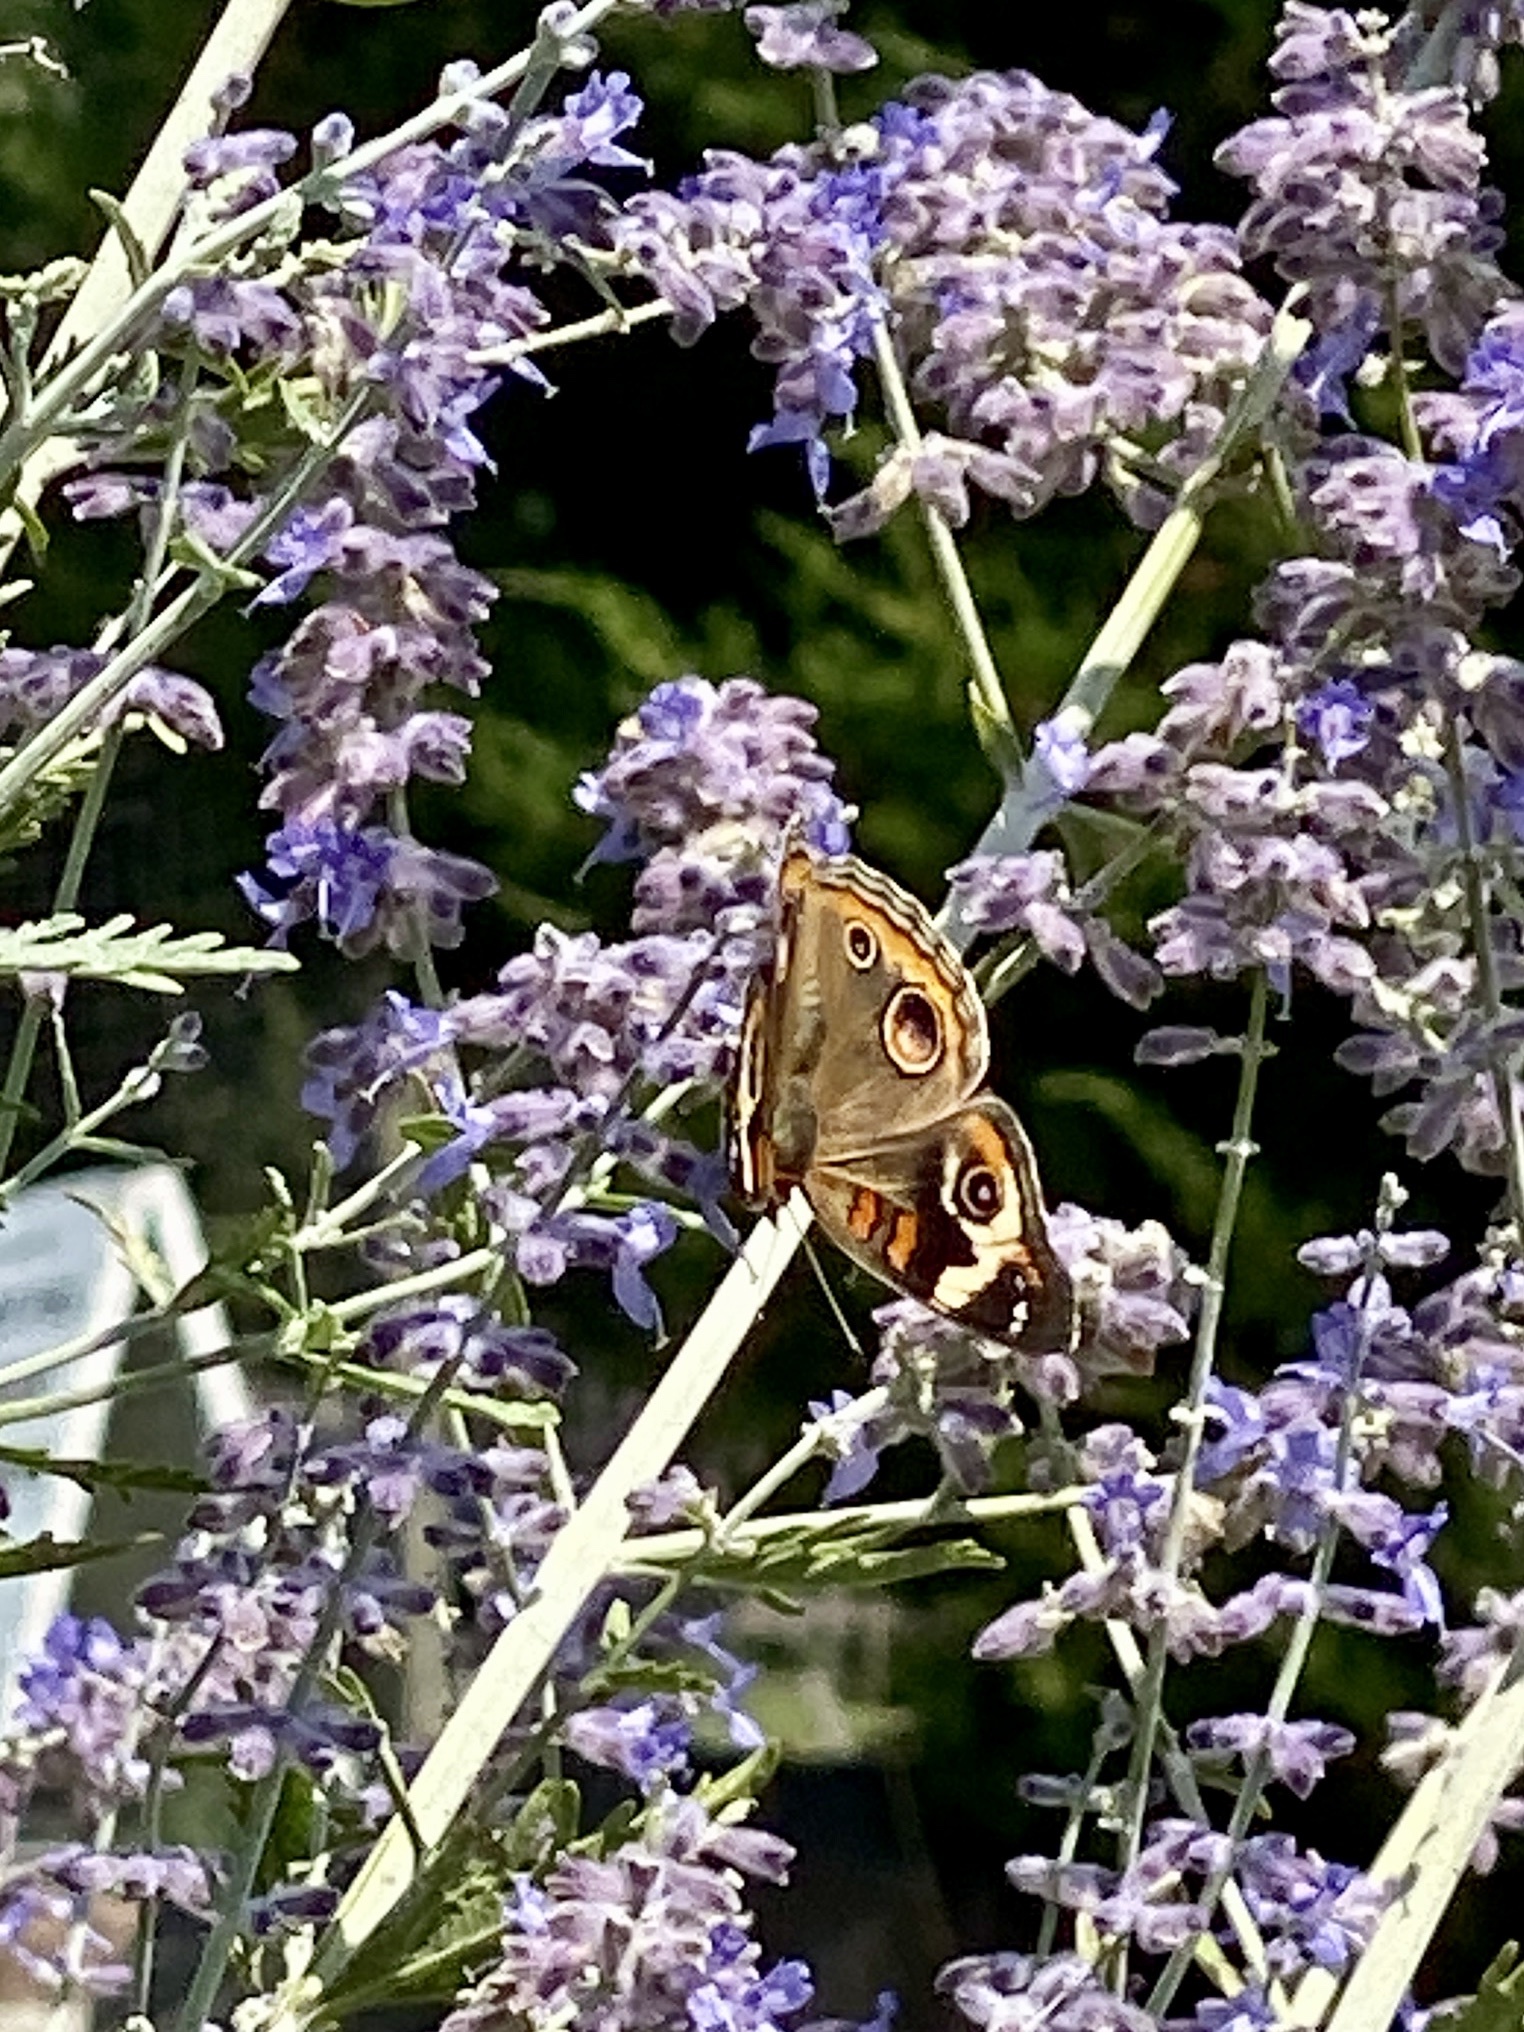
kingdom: Animalia
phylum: Arthropoda
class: Insecta
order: Lepidoptera
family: Nymphalidae
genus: Junonia
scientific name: Junonia coenia
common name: Common buckeye
